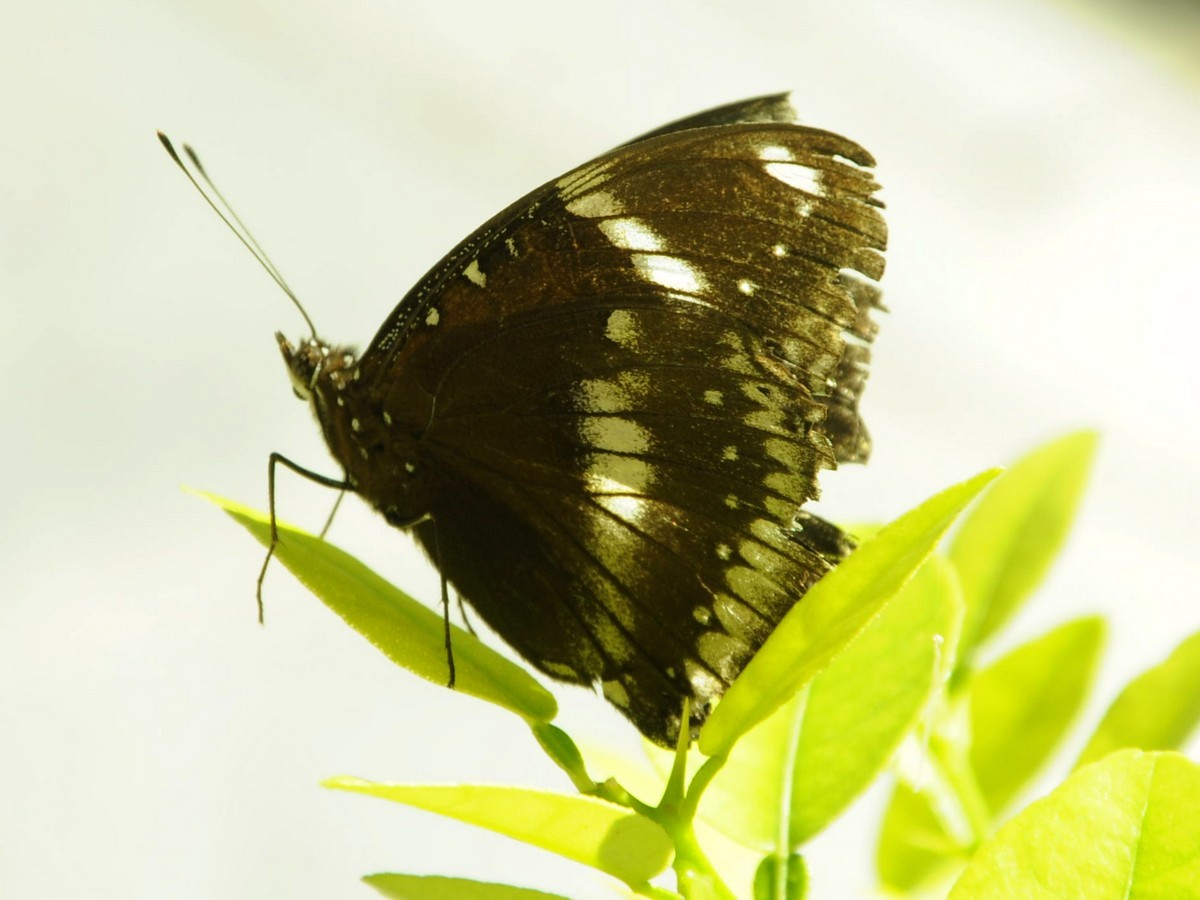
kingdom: Animalia
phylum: Arthropoda
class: Insecta
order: Lepidoptera
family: Nymphalidae
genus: Hypolimnas
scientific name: Hypolimnas bolina
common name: Great eggfly
